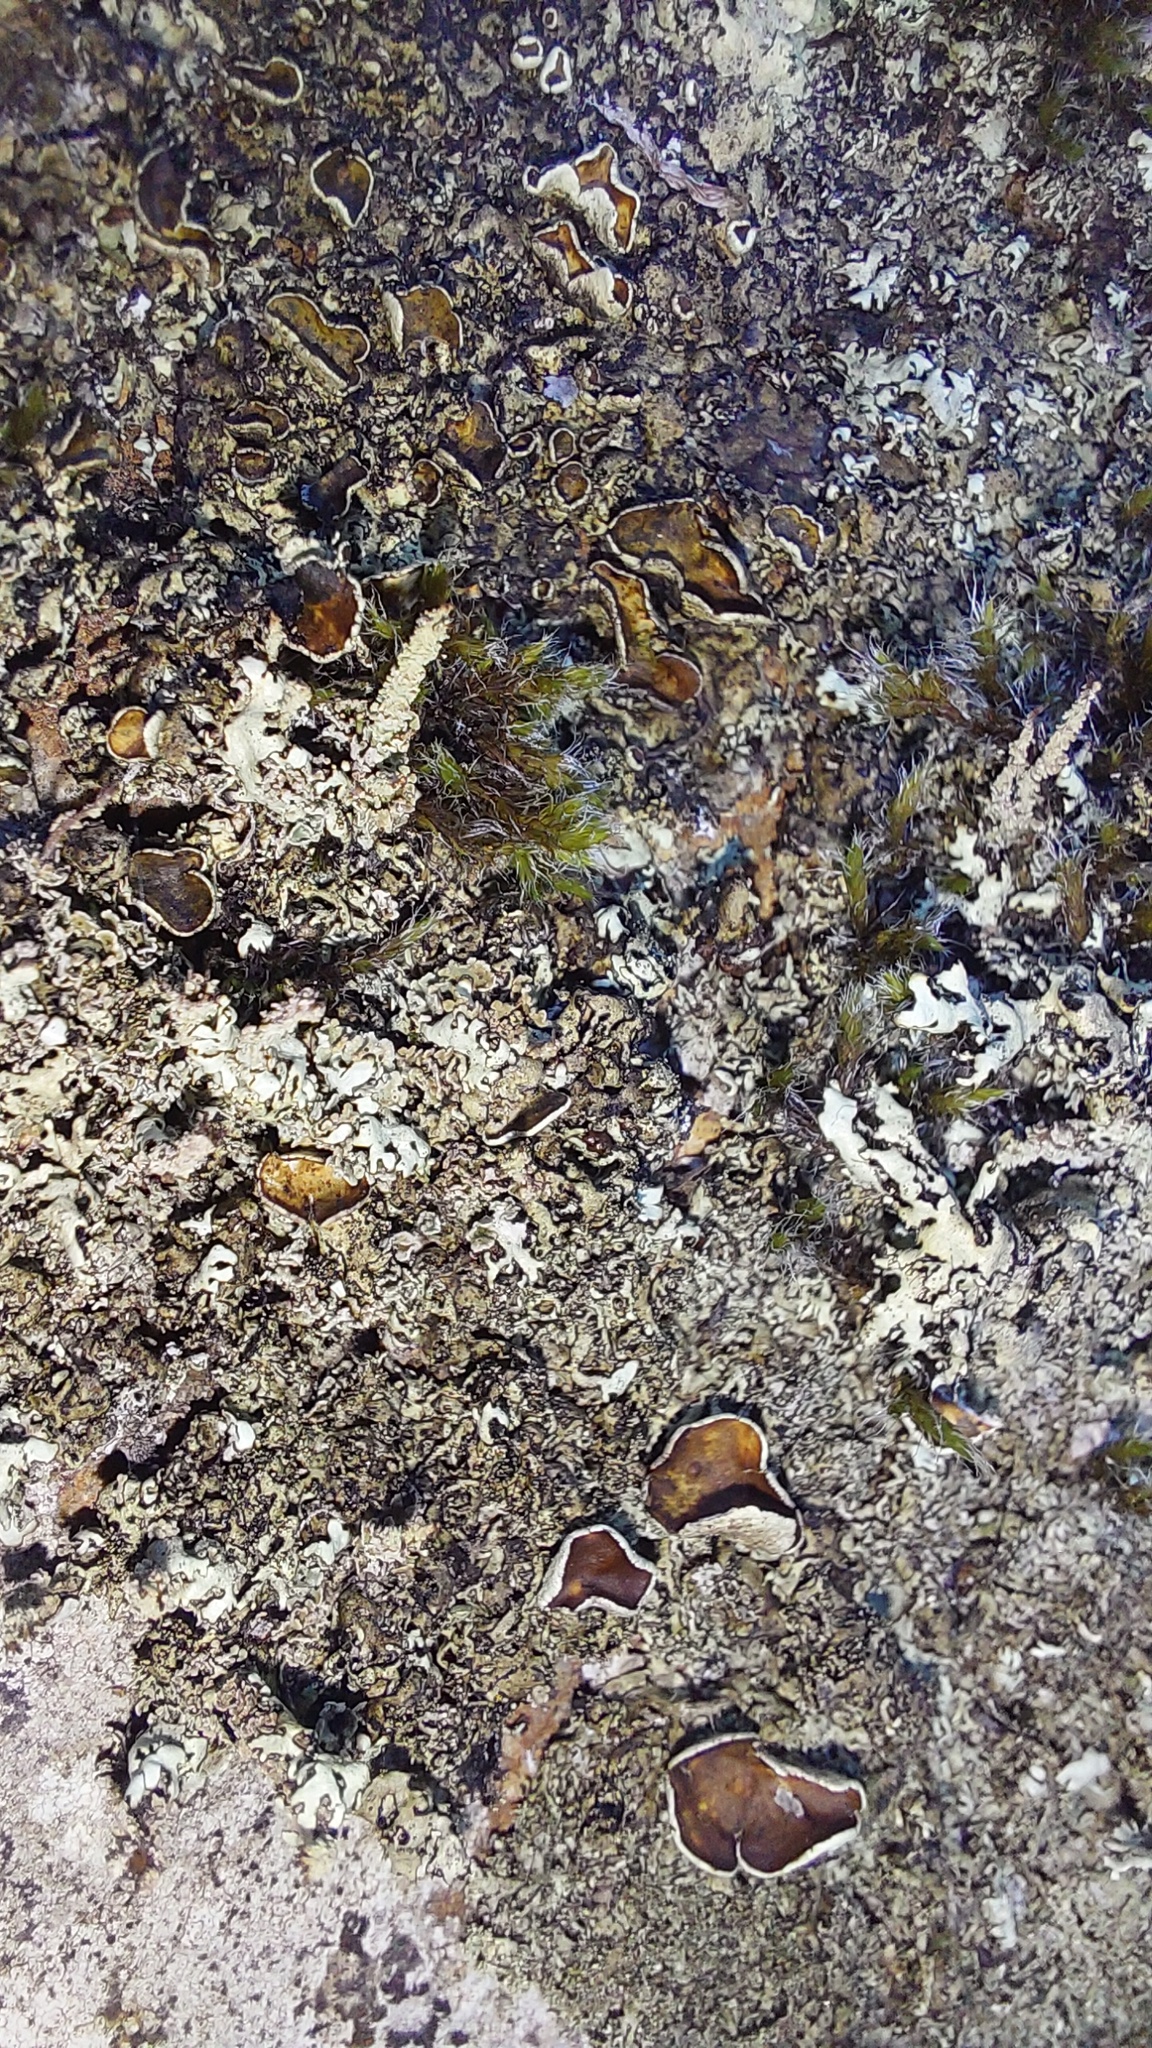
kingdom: Fungi
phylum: Ascomycota
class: Lecanoromycetes
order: Lecanorales
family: Parmeliaceae
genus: Xanthoparmelia
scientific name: Xanthoparmelia conspersa
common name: Peppered rock shield
